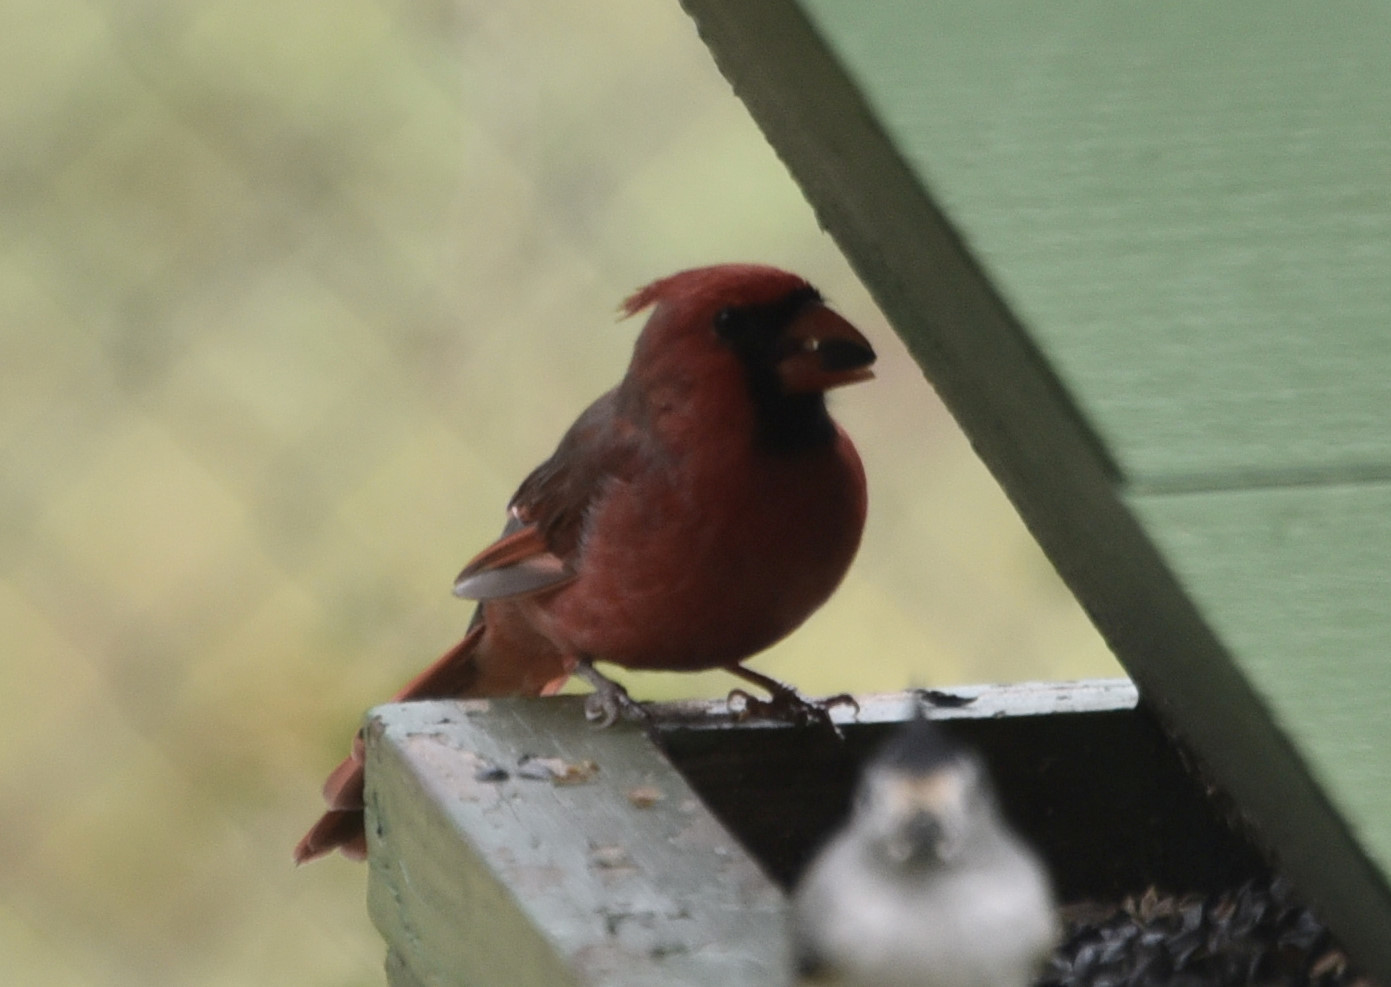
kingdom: Animalia
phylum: Chordata
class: Aves
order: Passeriformes
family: Cardinalidae
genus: Cardinalis
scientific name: Cardinalis cardinalis
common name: Northern cardinal
